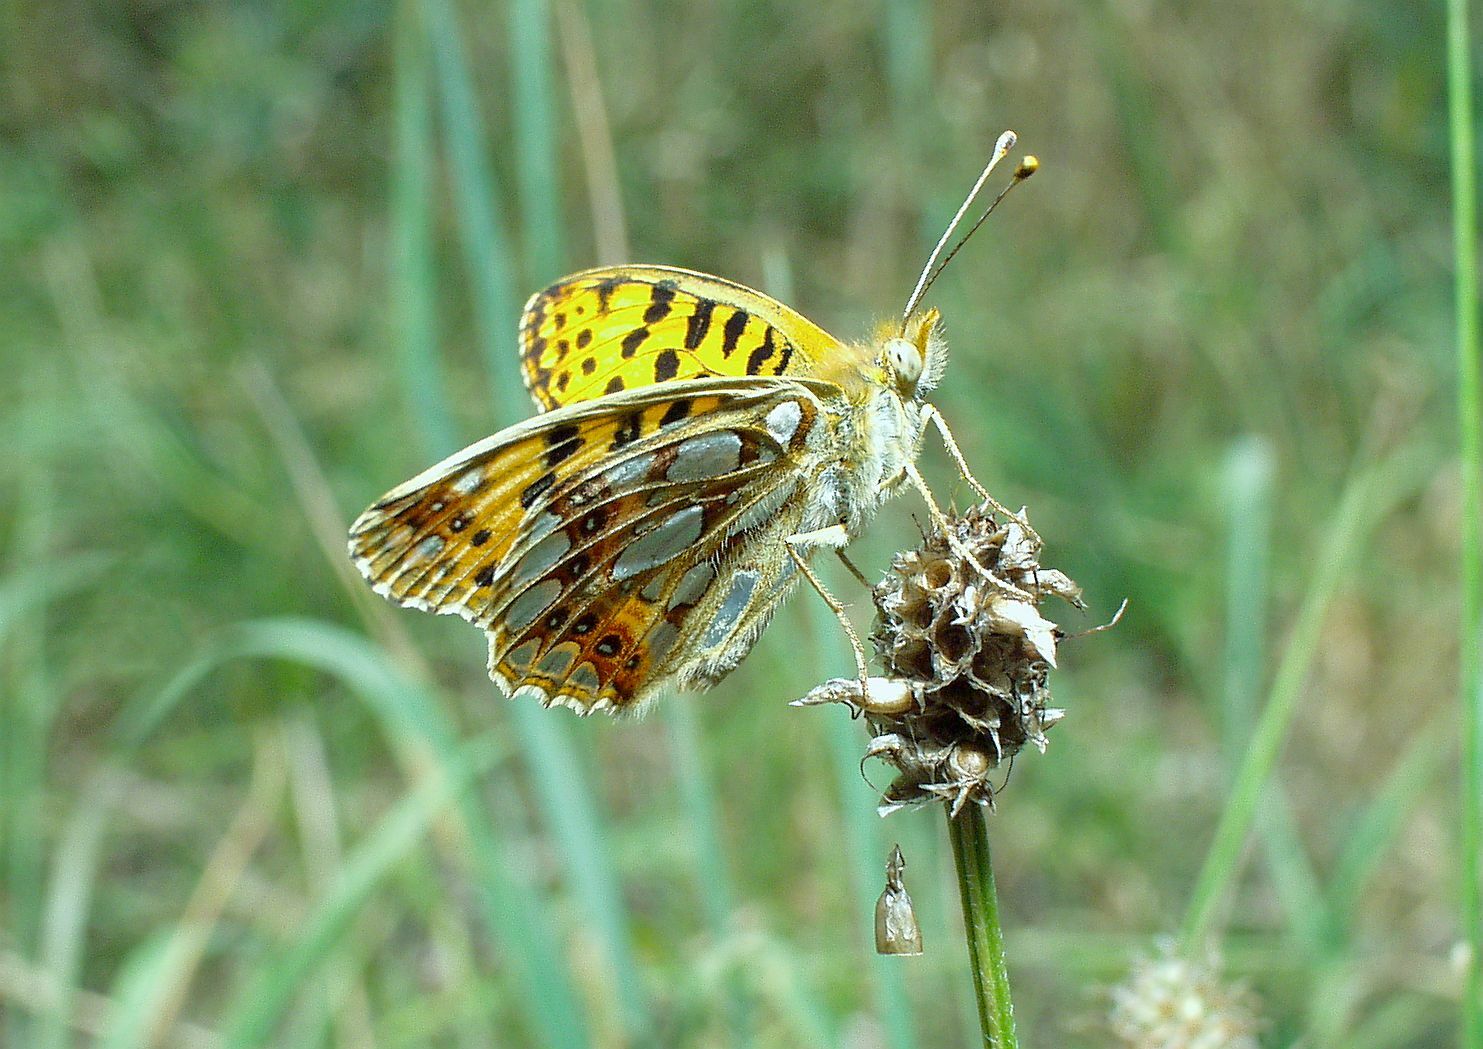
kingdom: Animalia
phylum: Arthropoda
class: Insecta
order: Lepidoptera
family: Nymphalidae
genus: Issoria
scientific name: Issoria lathonia
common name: Queen of spain fritillary
